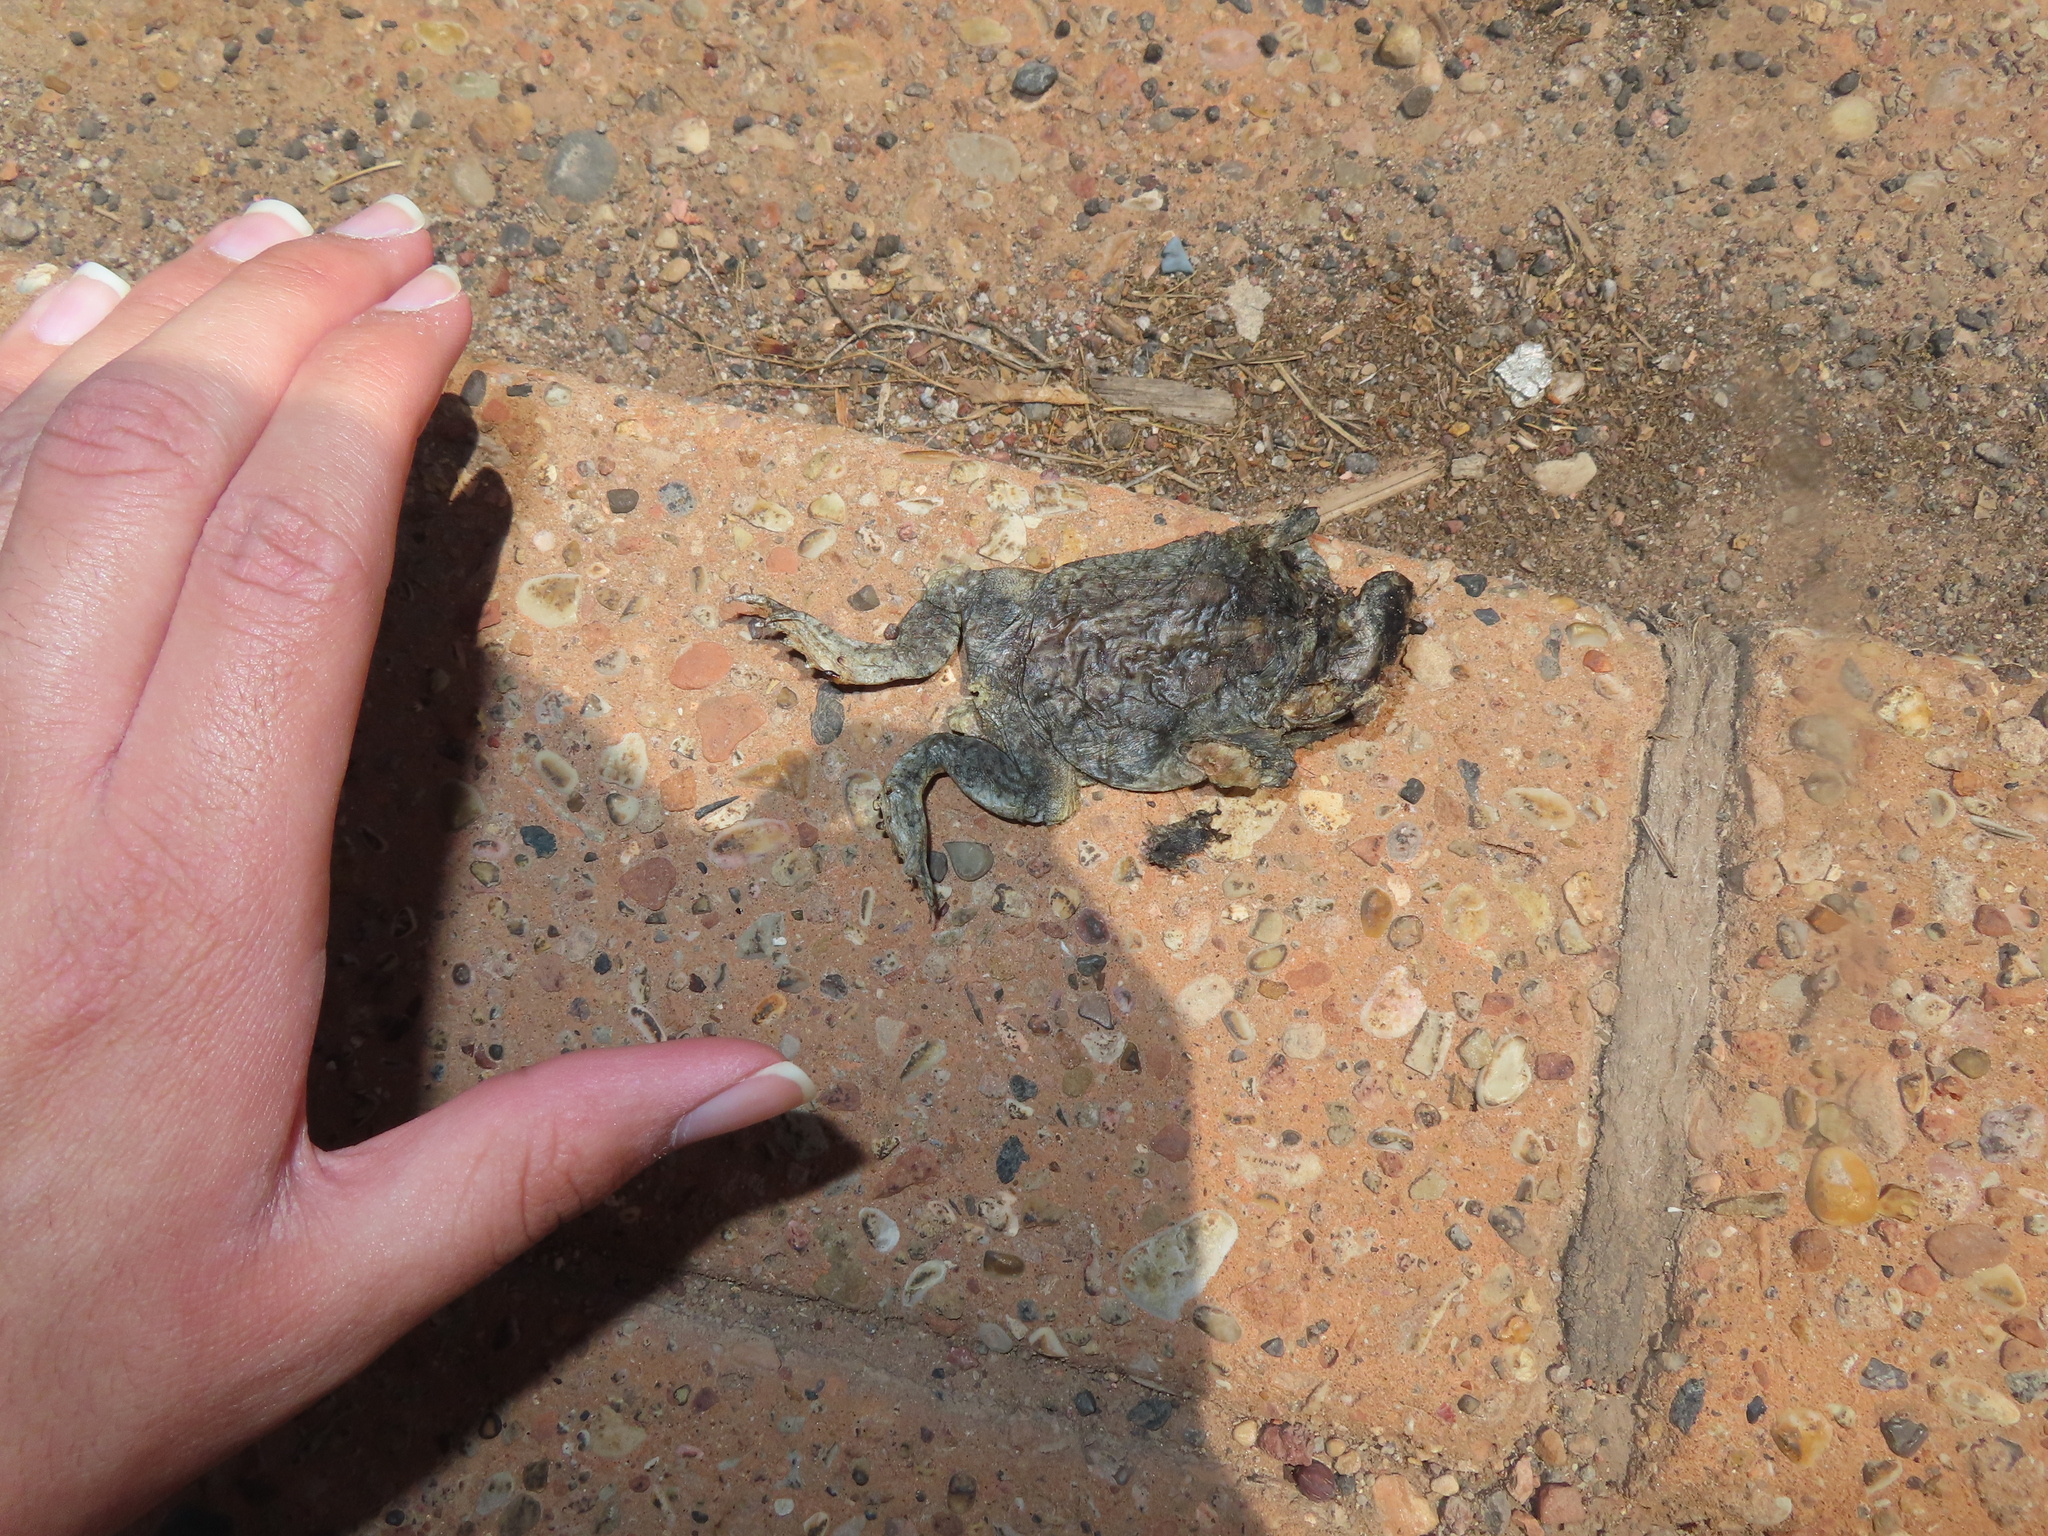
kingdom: Animalia
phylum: Chordata
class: Amphibia
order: Anura
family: Bufonidae
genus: Anaxyrus
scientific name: Anaxyrus microscaphus
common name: Arizona toad
